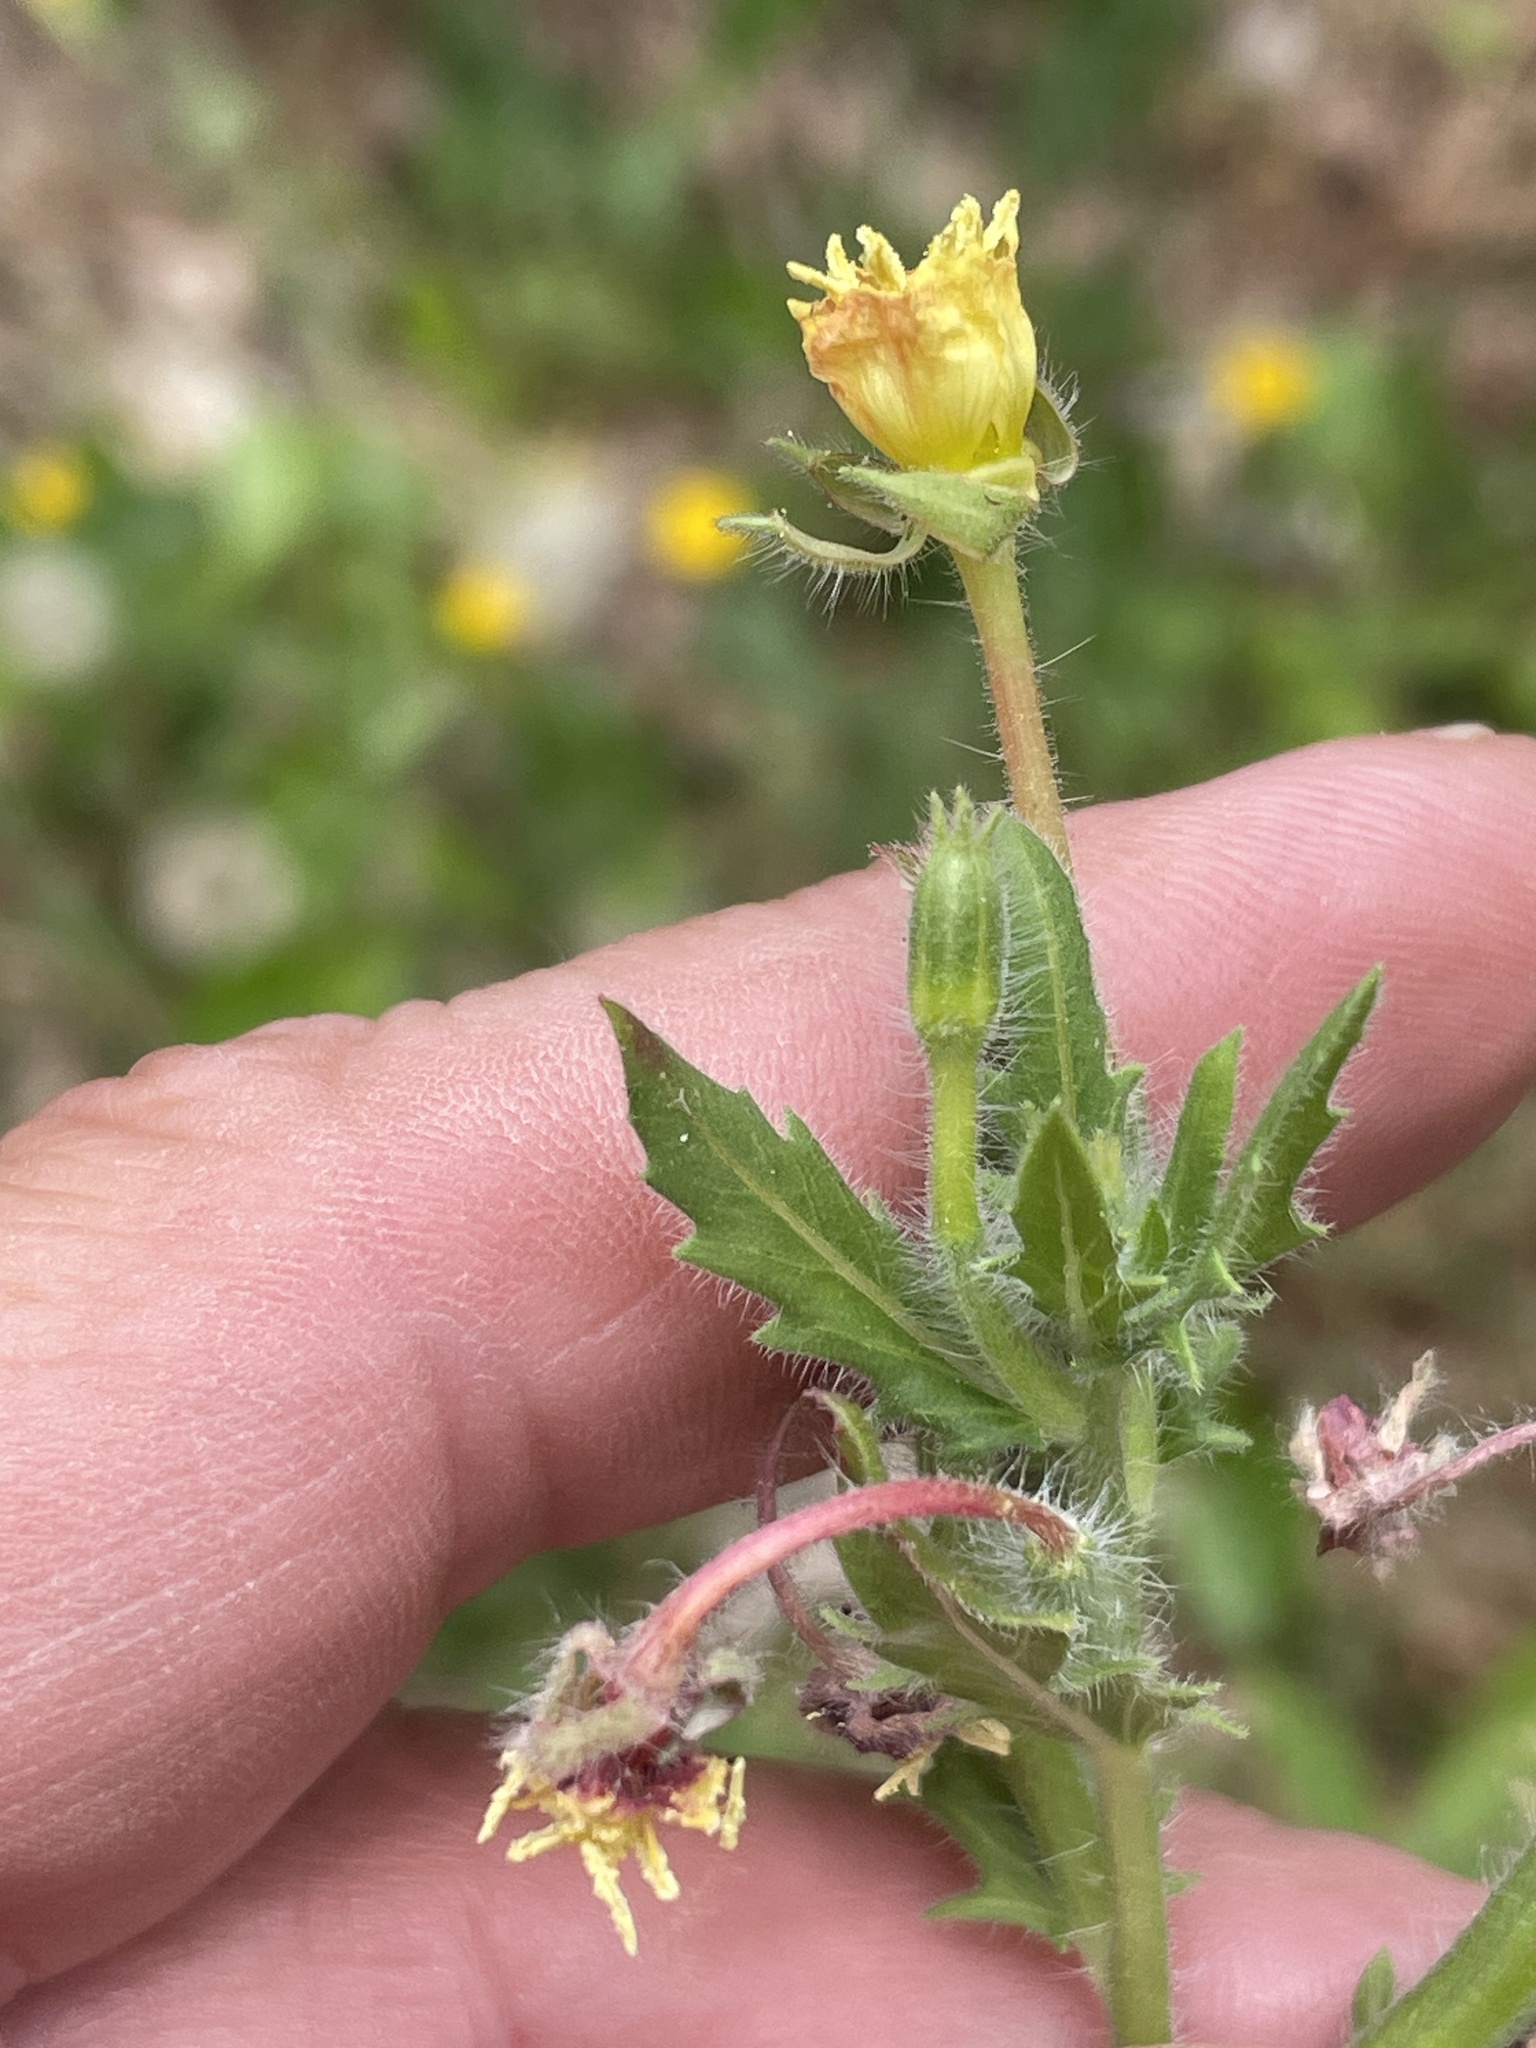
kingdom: Plantae
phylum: Tracheophyta
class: Magnoliopsida
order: Myrtales
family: Onagraceae
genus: Oenothera
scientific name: Oenothera laciniata
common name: Cut-leaved evening-primrose
